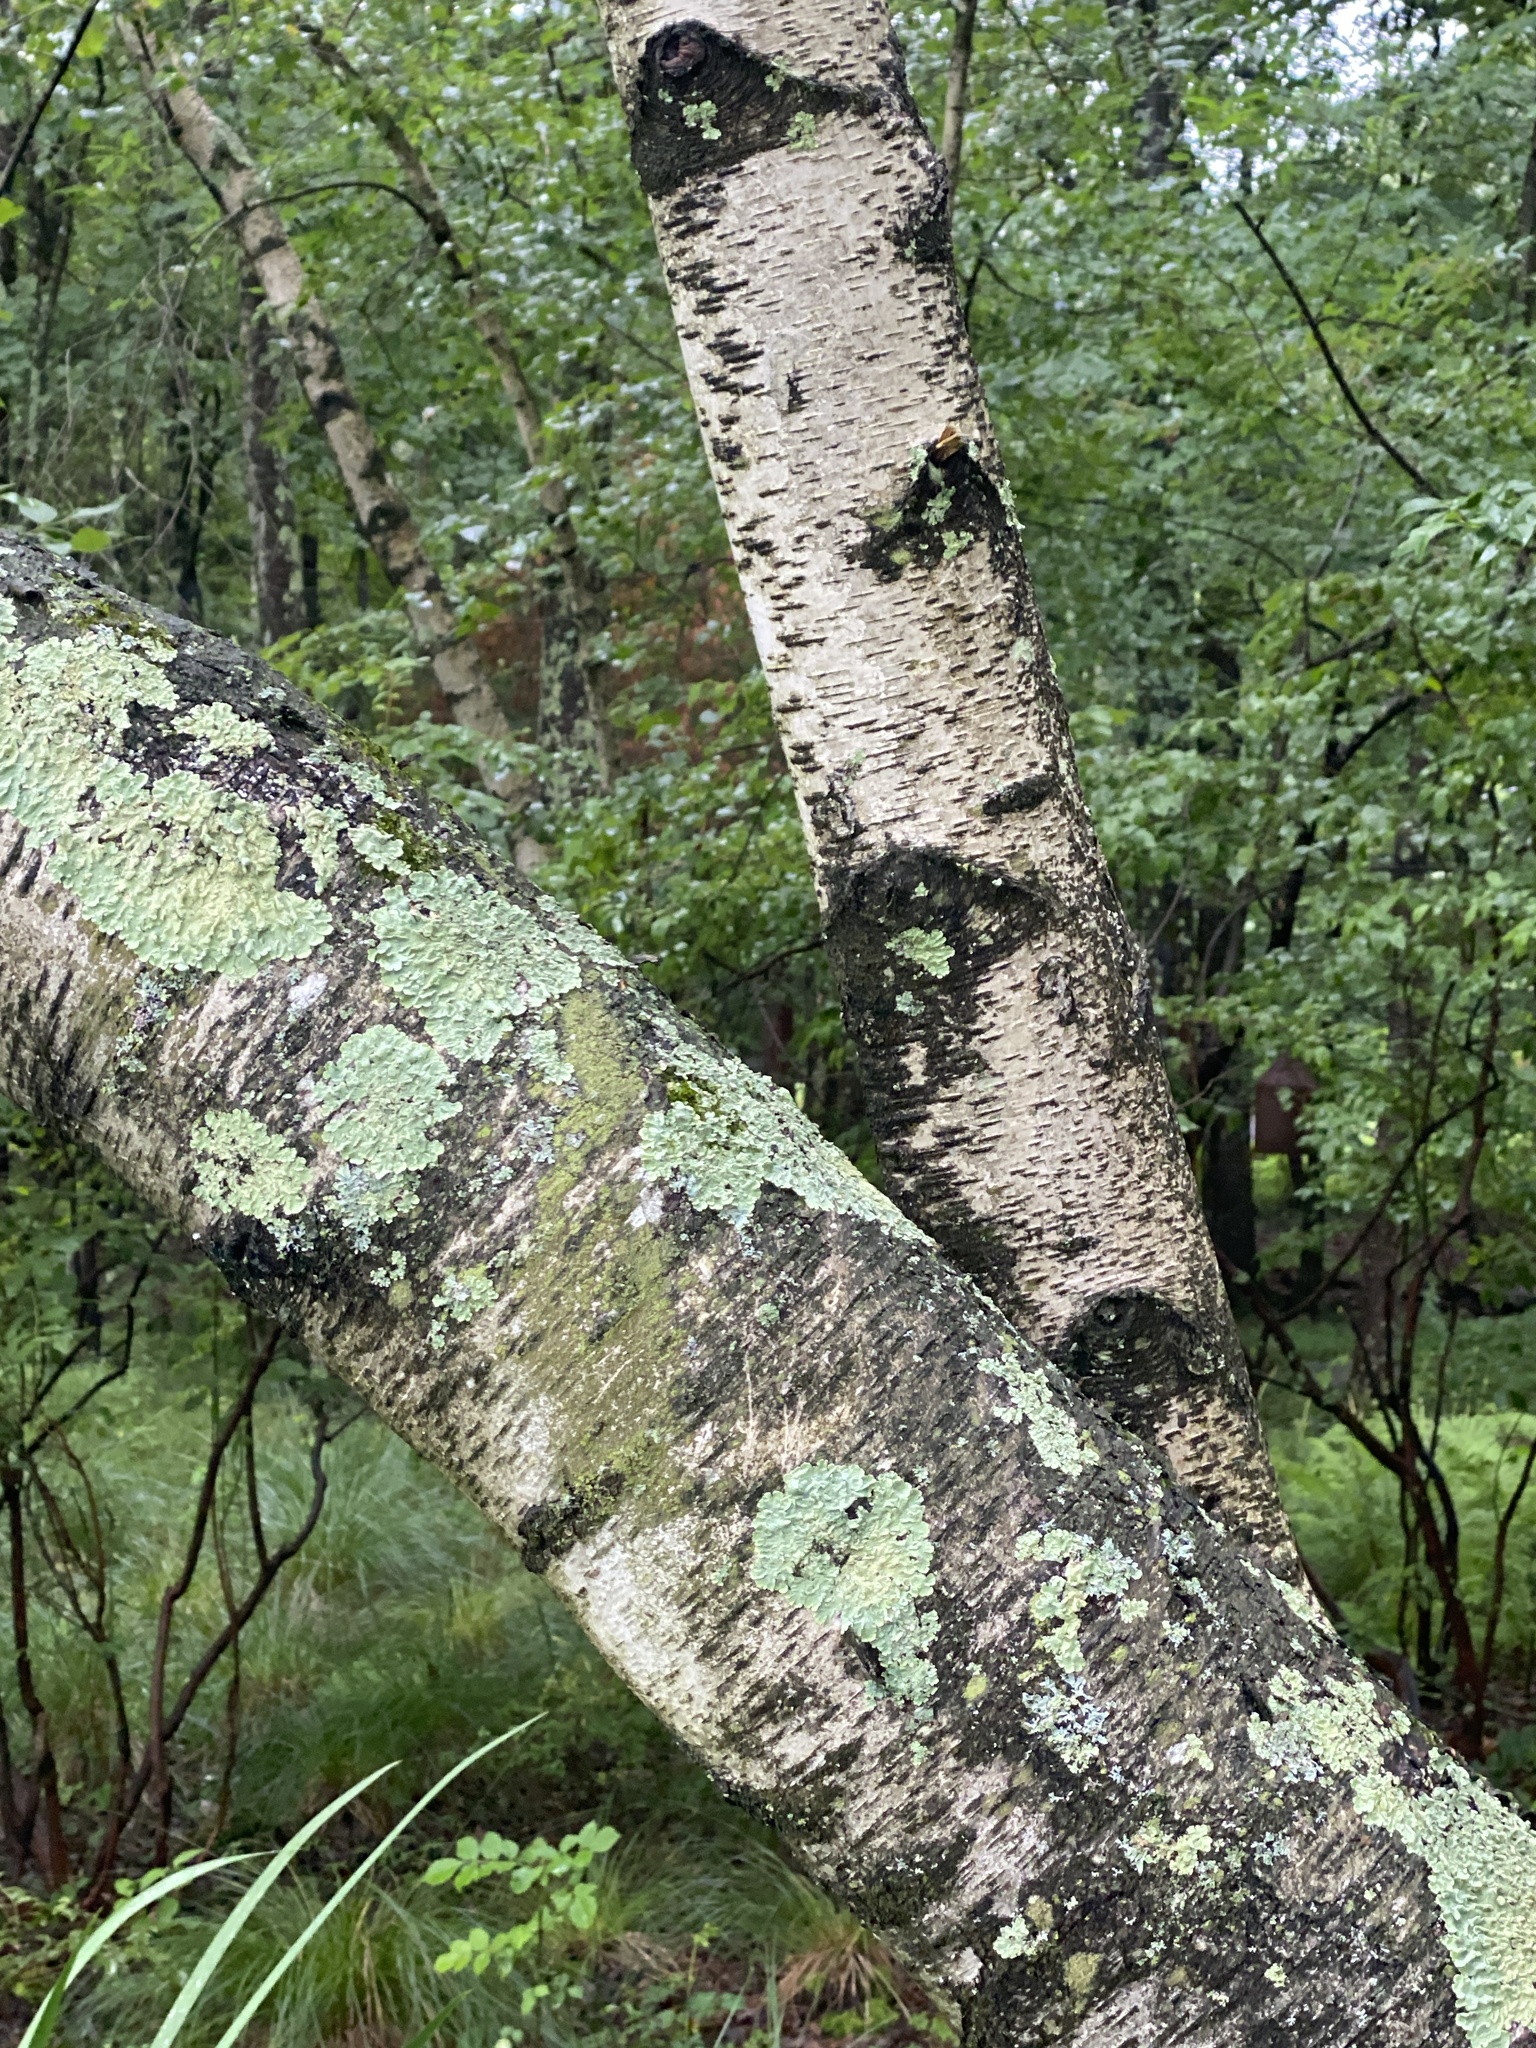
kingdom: Plantae
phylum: Tracheophyta
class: Magnoliopsida
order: Fagales
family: Betulaceae
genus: Betula
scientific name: Betula populifolia
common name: Fire birch
